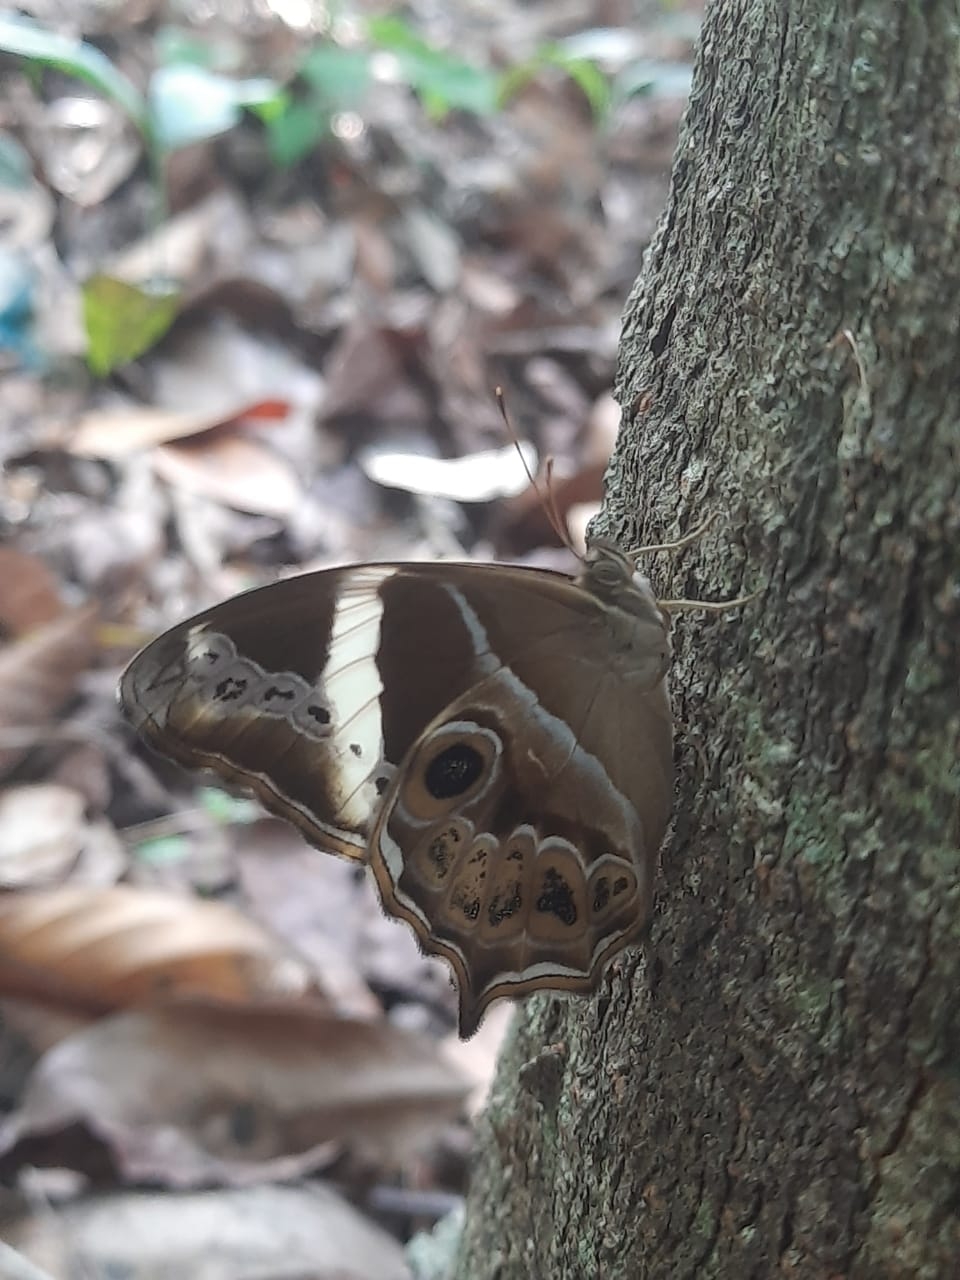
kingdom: Animalia
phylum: Arthropoda
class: Insecta
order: Lepidoptera
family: Nymphalidae
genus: Lethe
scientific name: Lethe europa
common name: Bamboo treebrown
